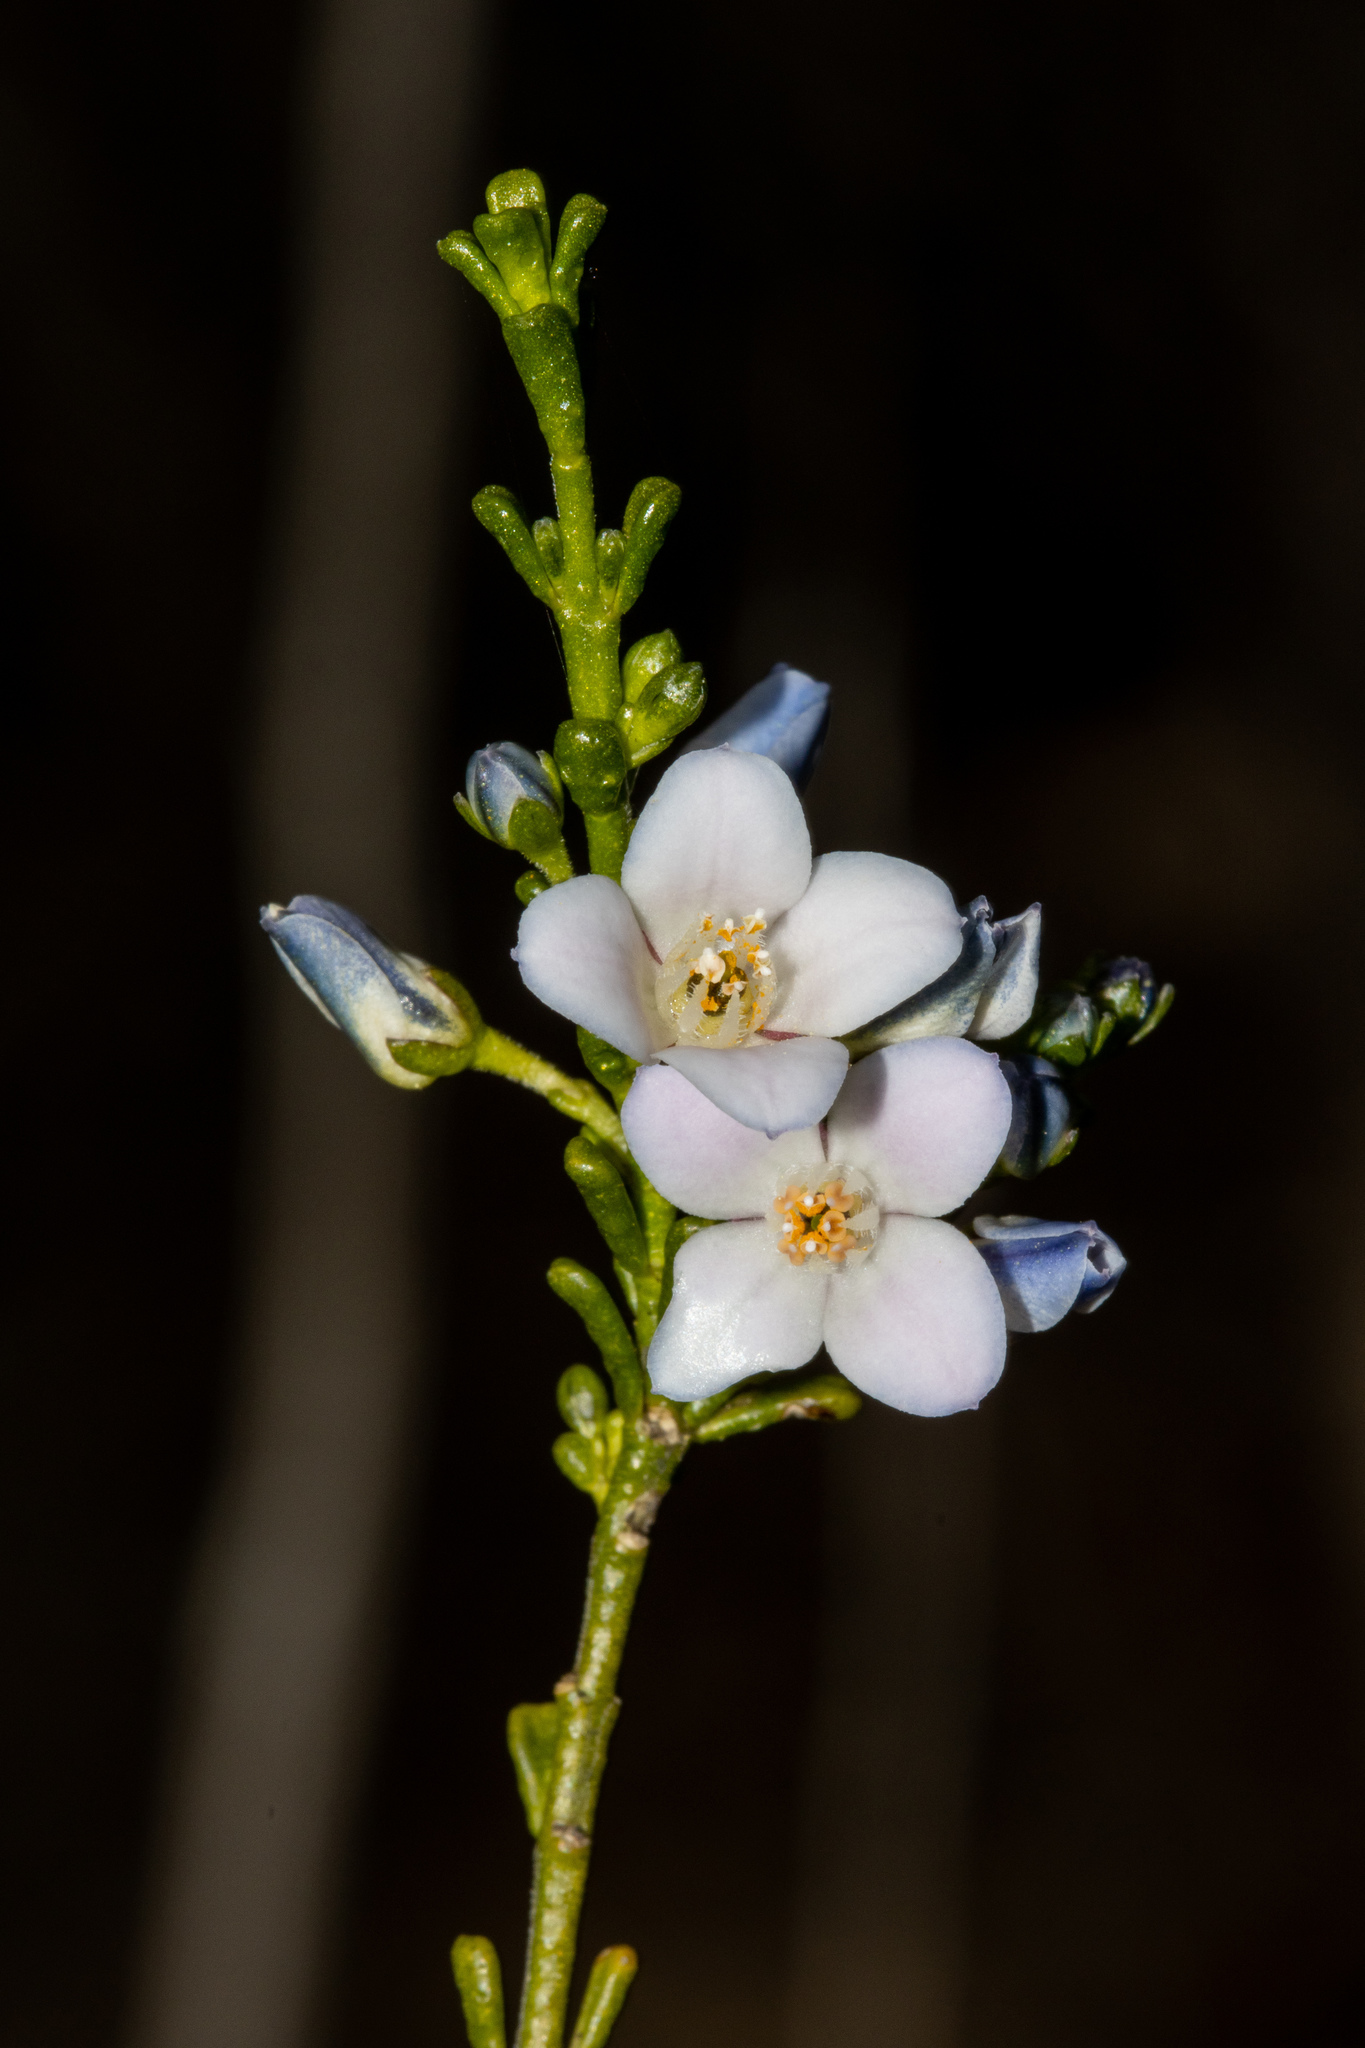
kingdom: Plantae
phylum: Tracheophyta
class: Magnoliopsida
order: Sapindales
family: Rutaceae
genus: Cyanothamnus
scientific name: Cyanothamnus coerulescens
